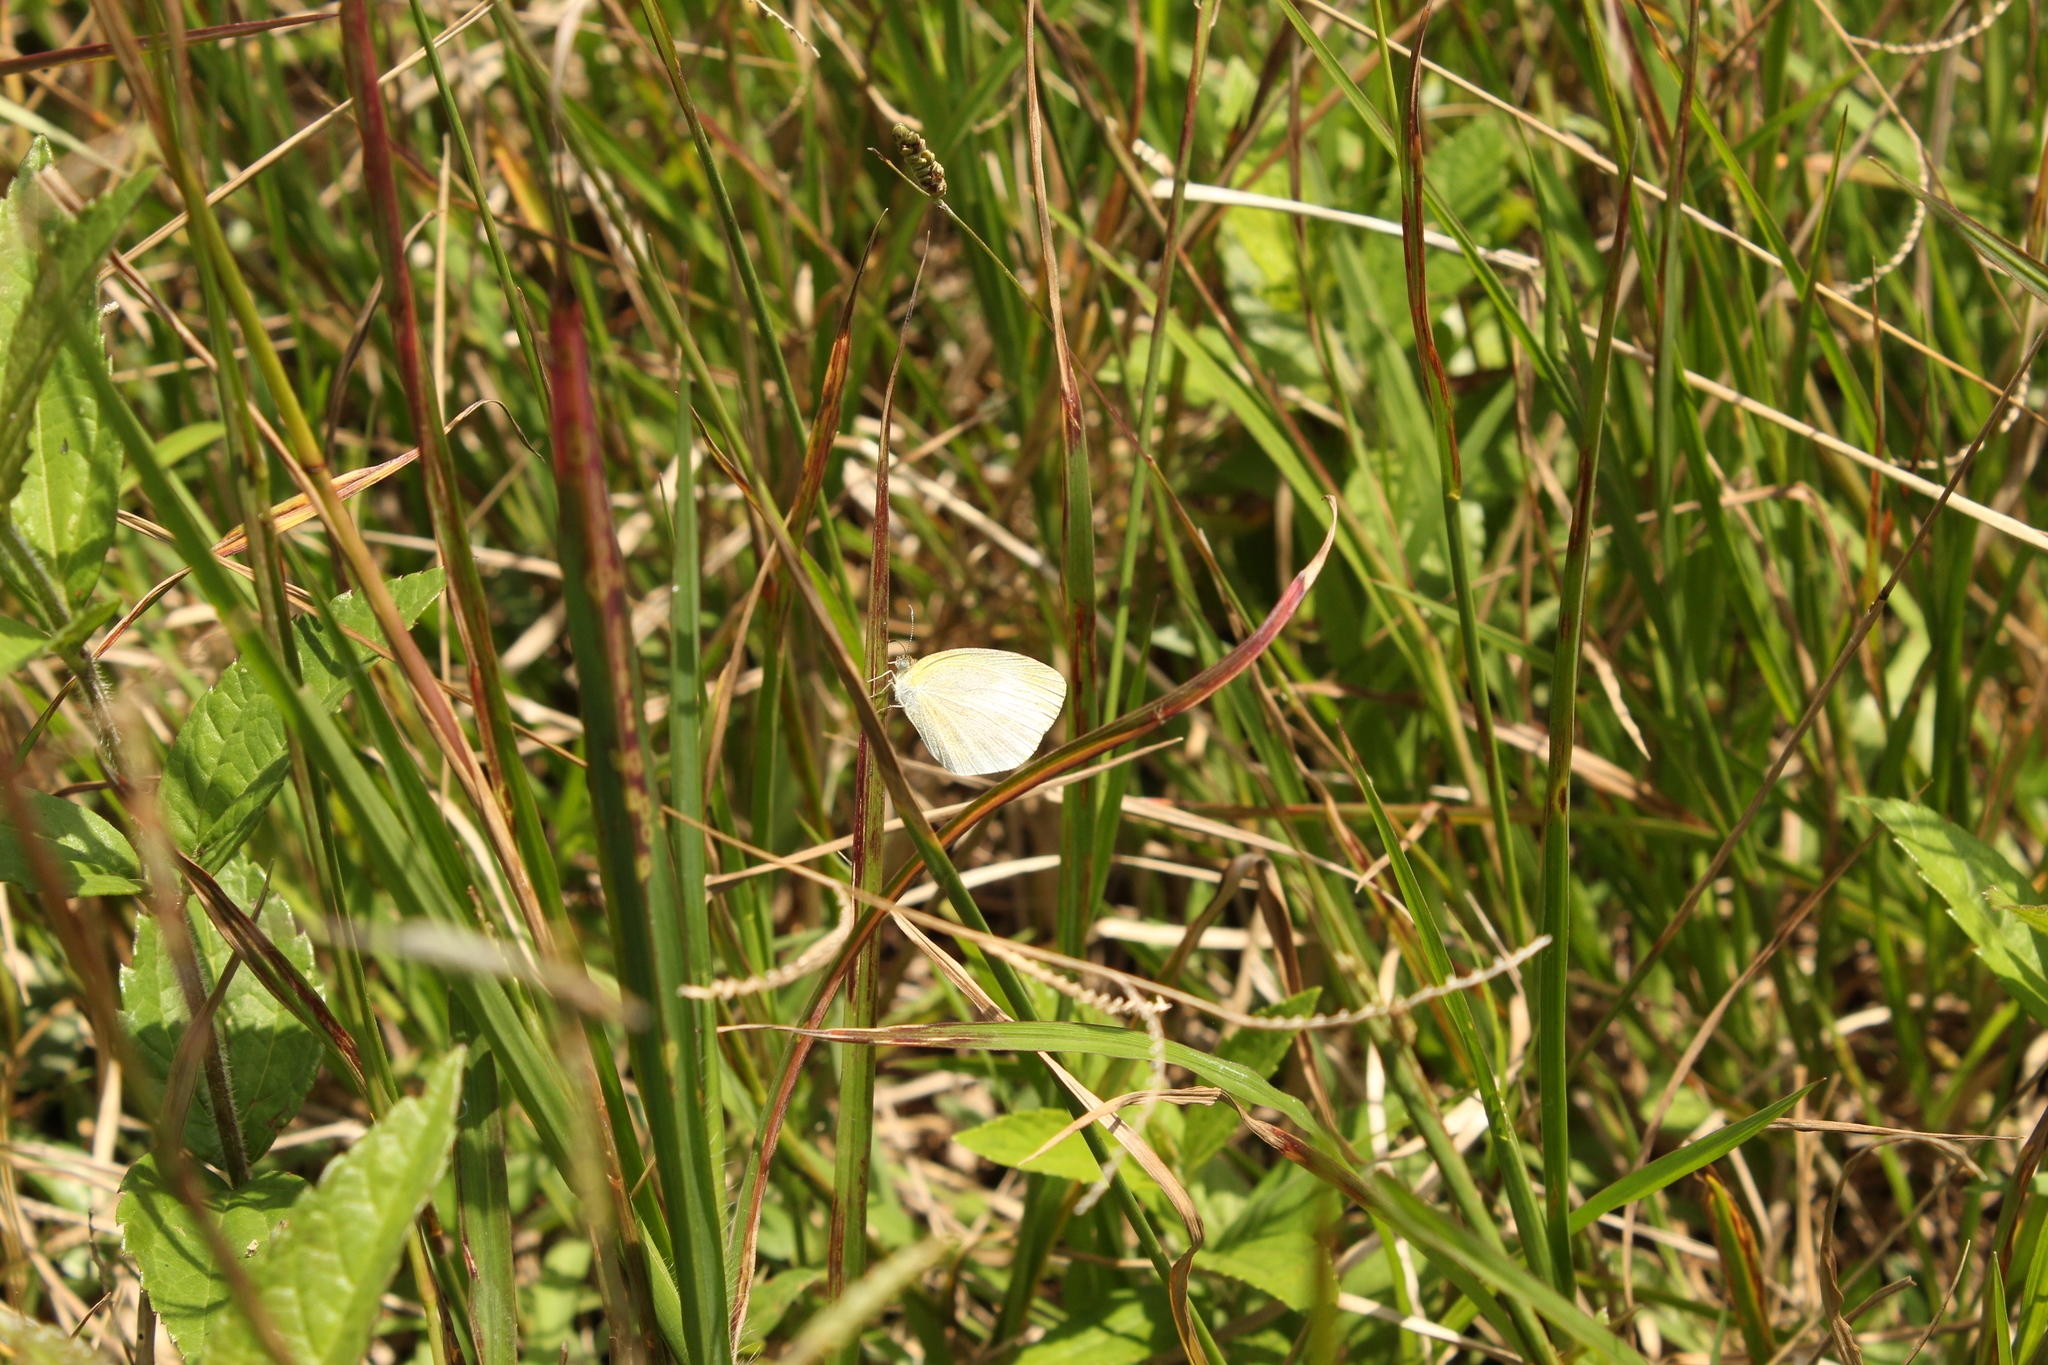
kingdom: Animalia
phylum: Arthropoda
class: Insecta
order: Lepidoptera
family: Pieridae
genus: Eurema
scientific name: Eurema daira
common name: Barred sulphur
